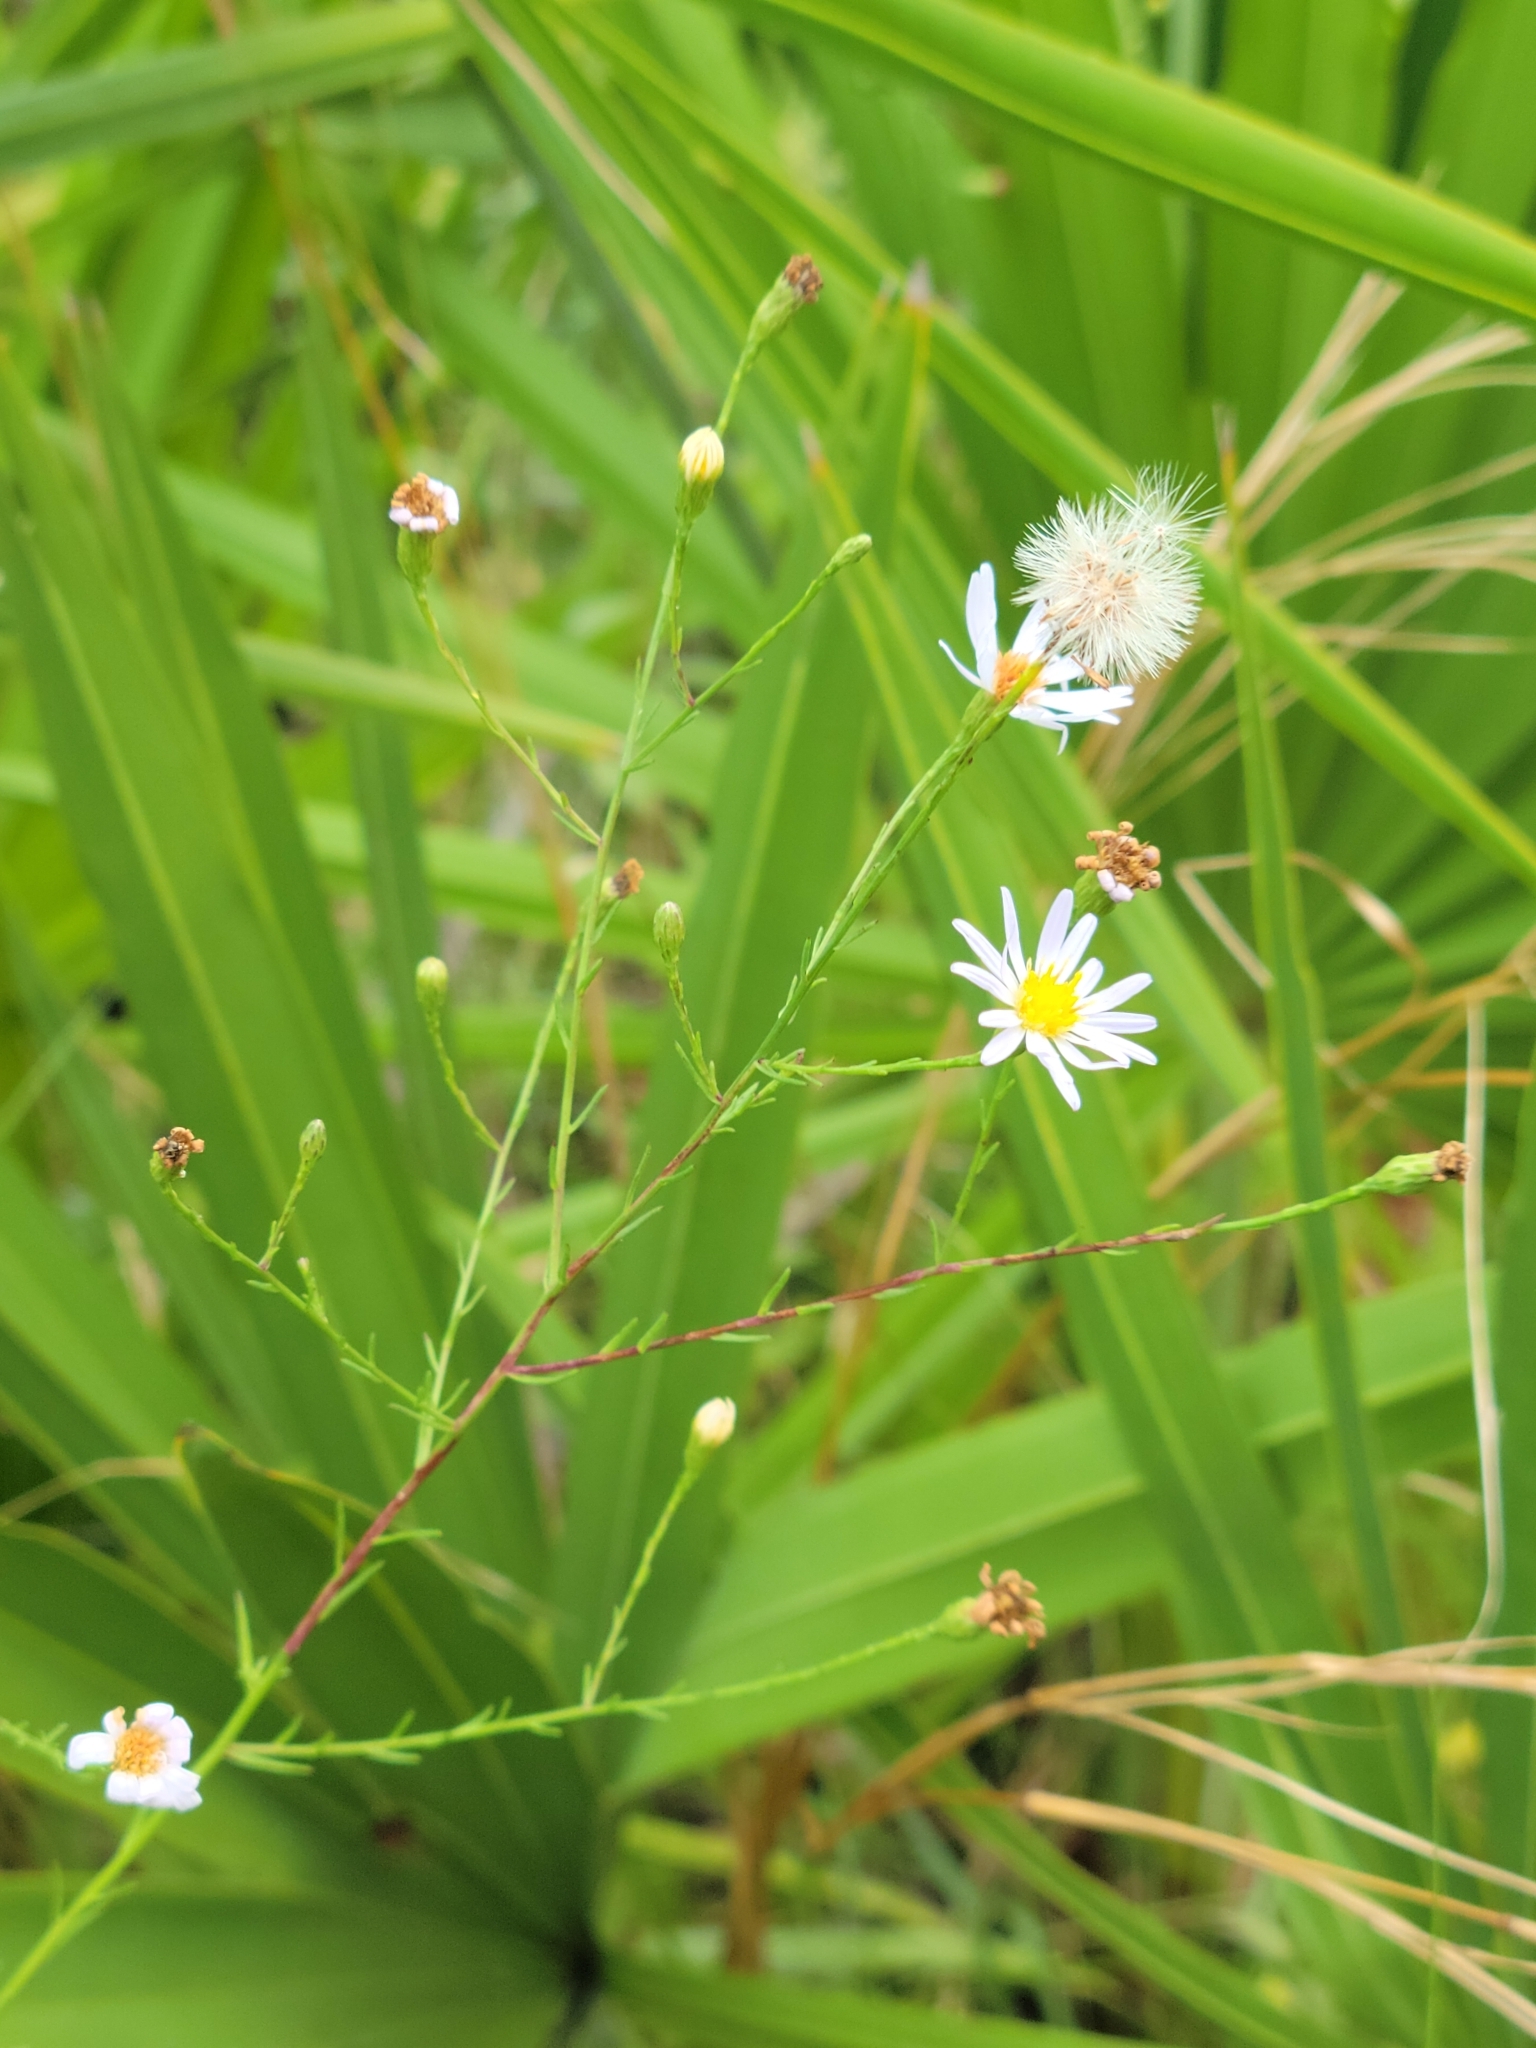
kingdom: Plantae
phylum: Tracheophyta
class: Magnoliopsida
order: Asterales
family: Asteraceae
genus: Symphyotrichum
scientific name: Symphyotrichum dumosum
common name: Bushy aster
